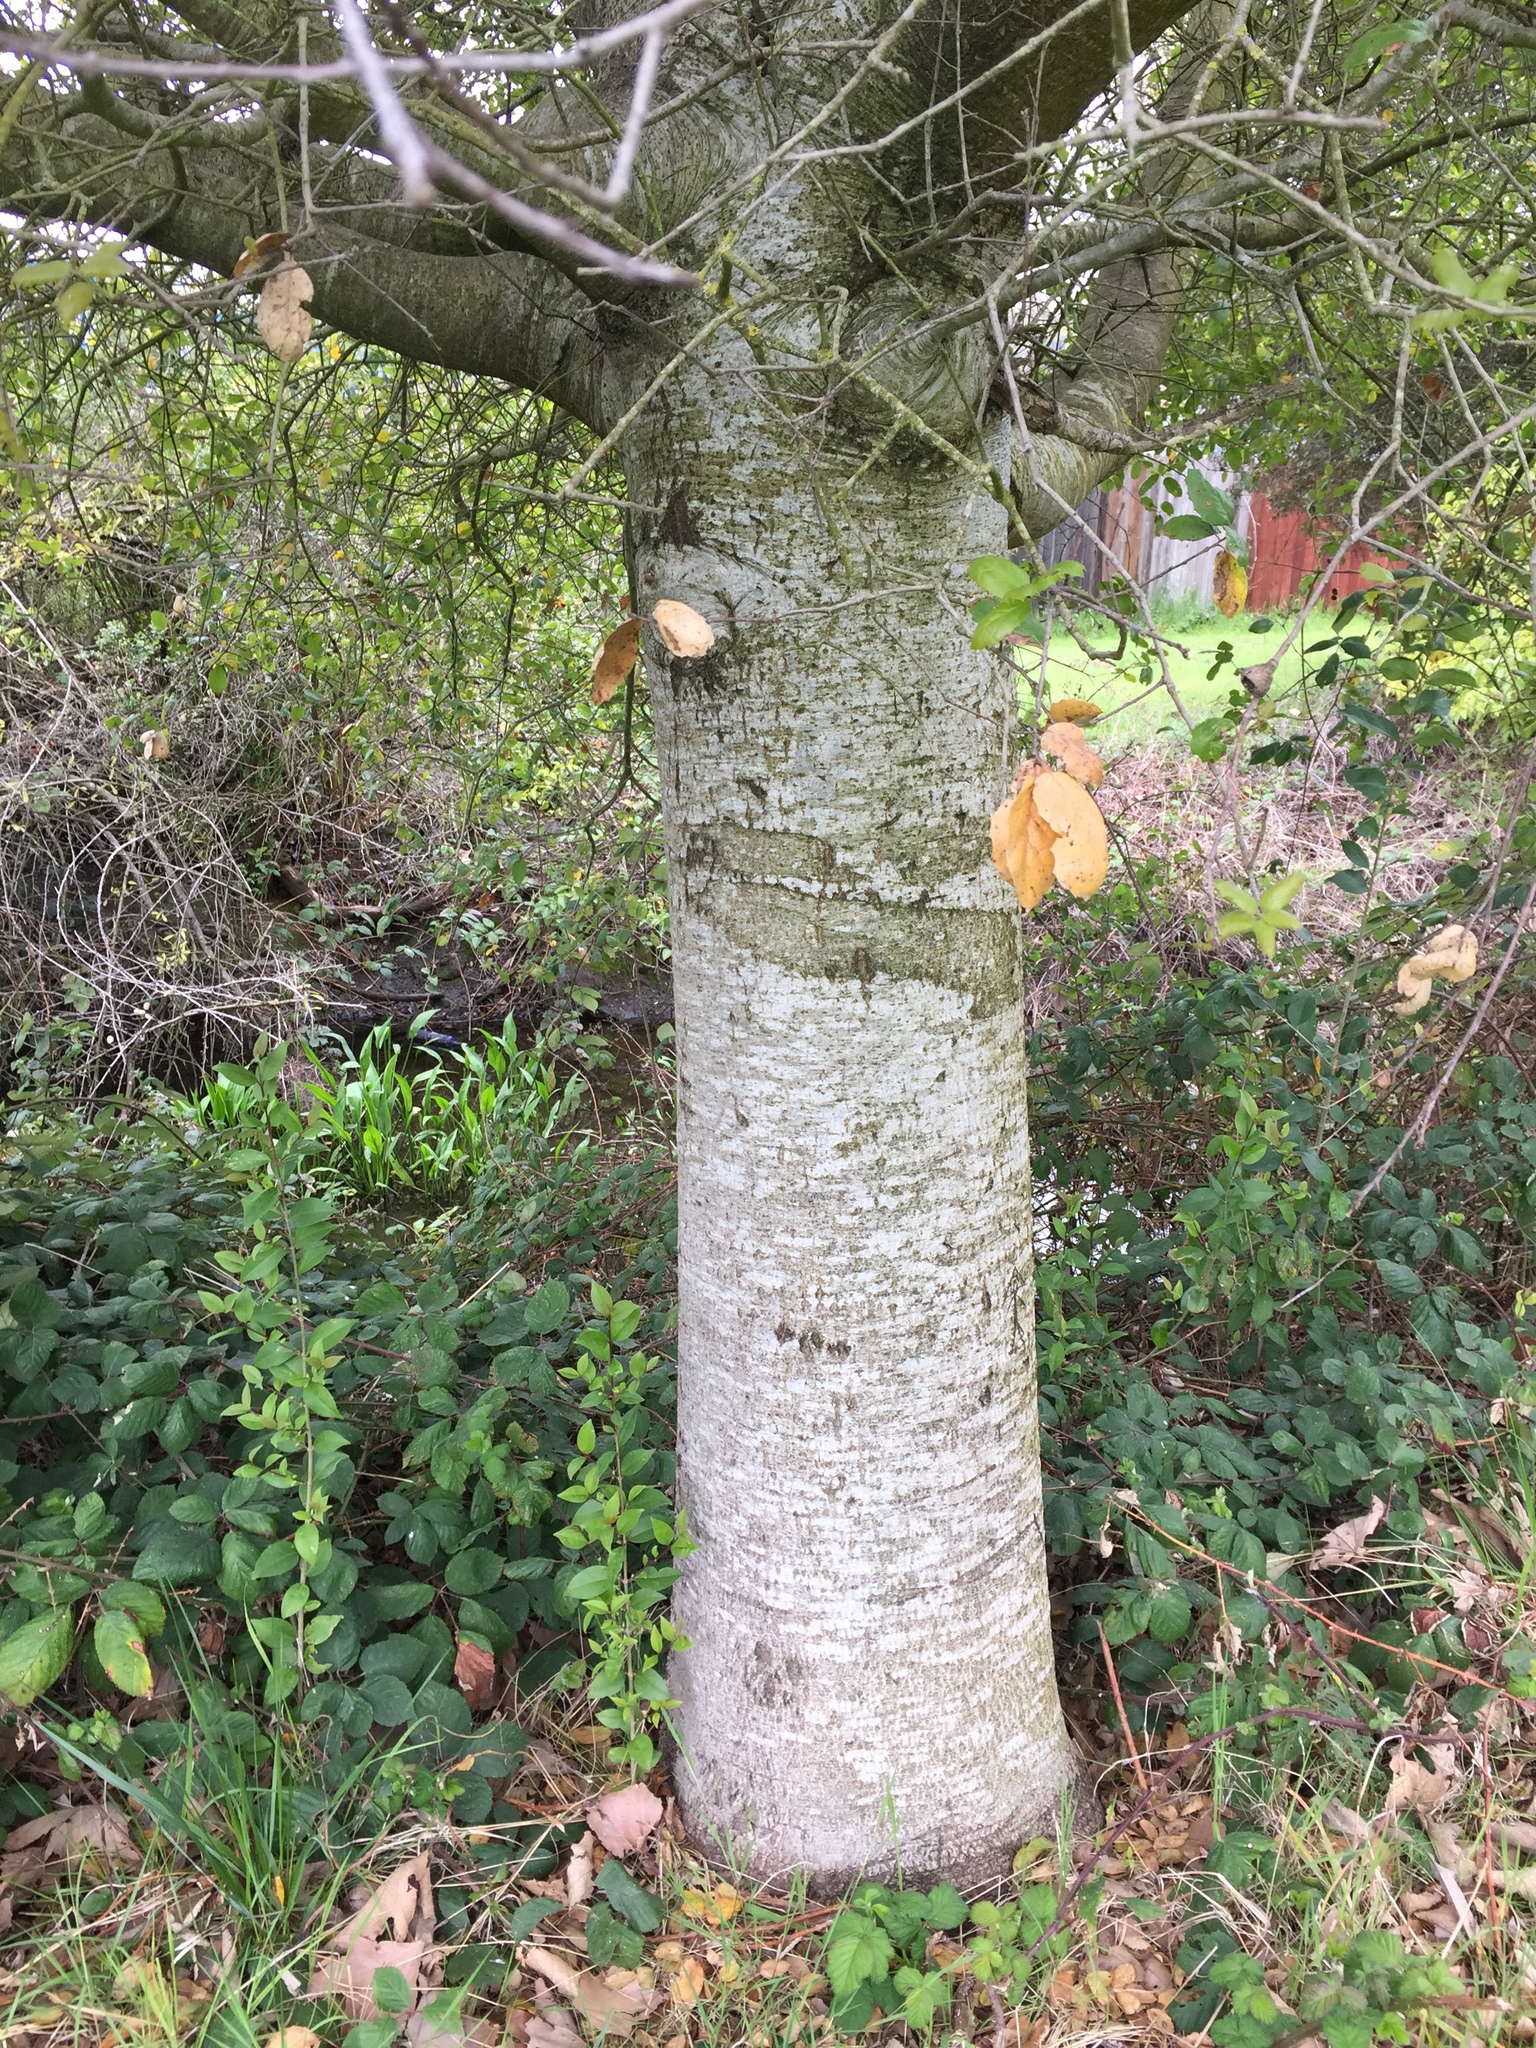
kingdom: Plantae
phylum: Tracheophyta
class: Magnoliopsida
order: Fagales
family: Fagaceae
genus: Quercus
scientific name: Quercus agrifolia
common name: California live oak
